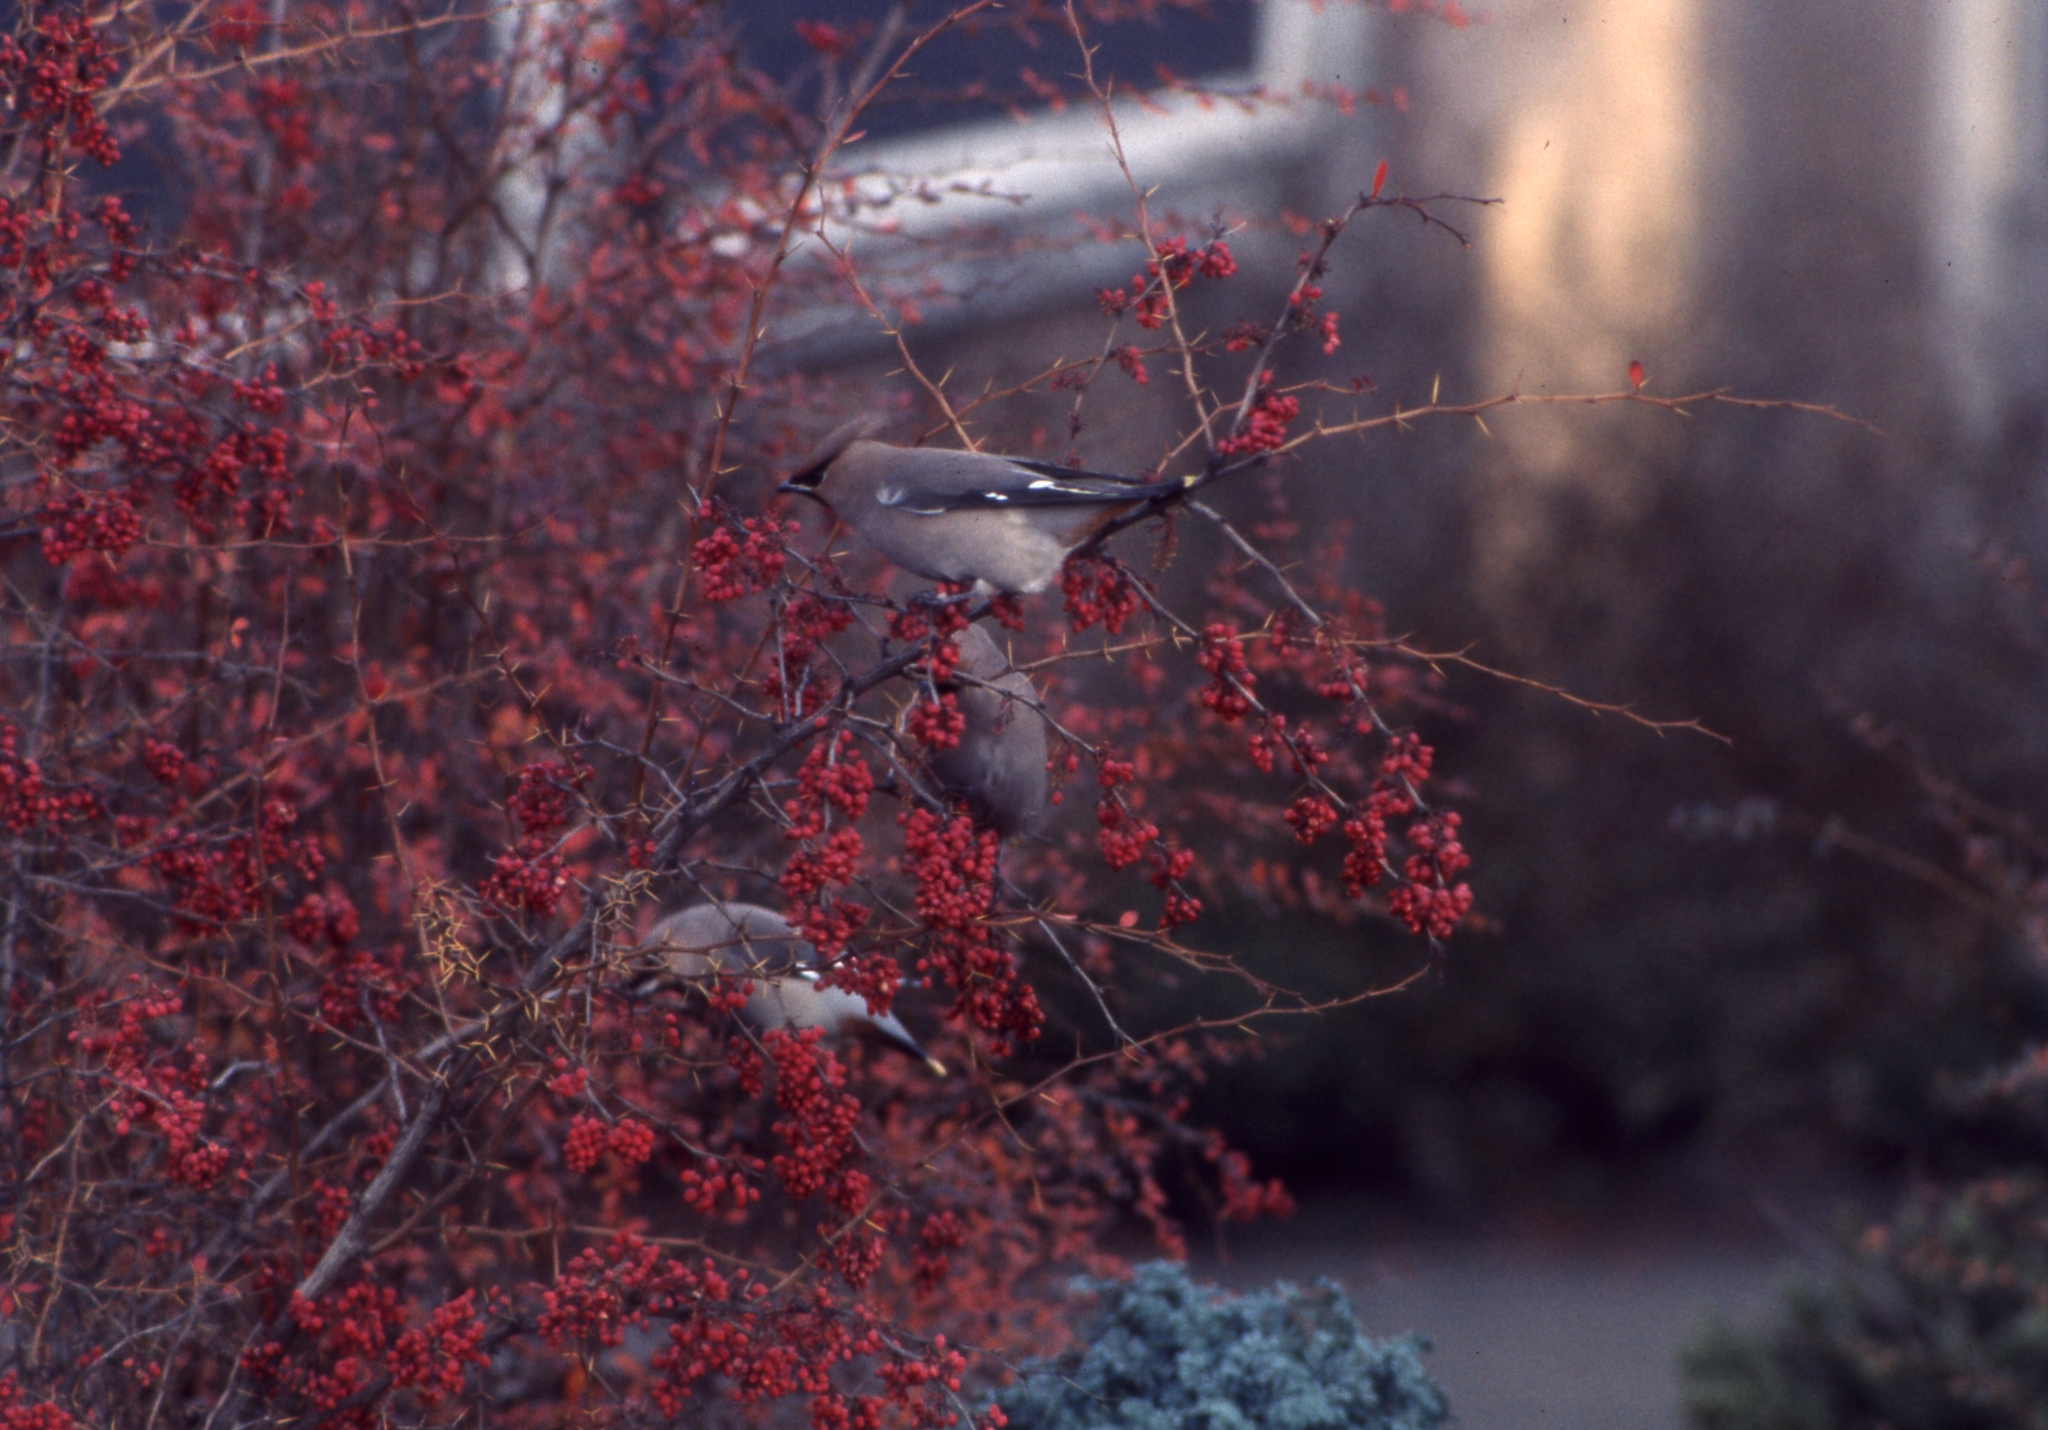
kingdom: Animalia
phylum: Chordata
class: Aves
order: Passeriformes
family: Bombycillidae
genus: Bombycilla
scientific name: Bombycilla garrulus
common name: Bohemian waxwing
